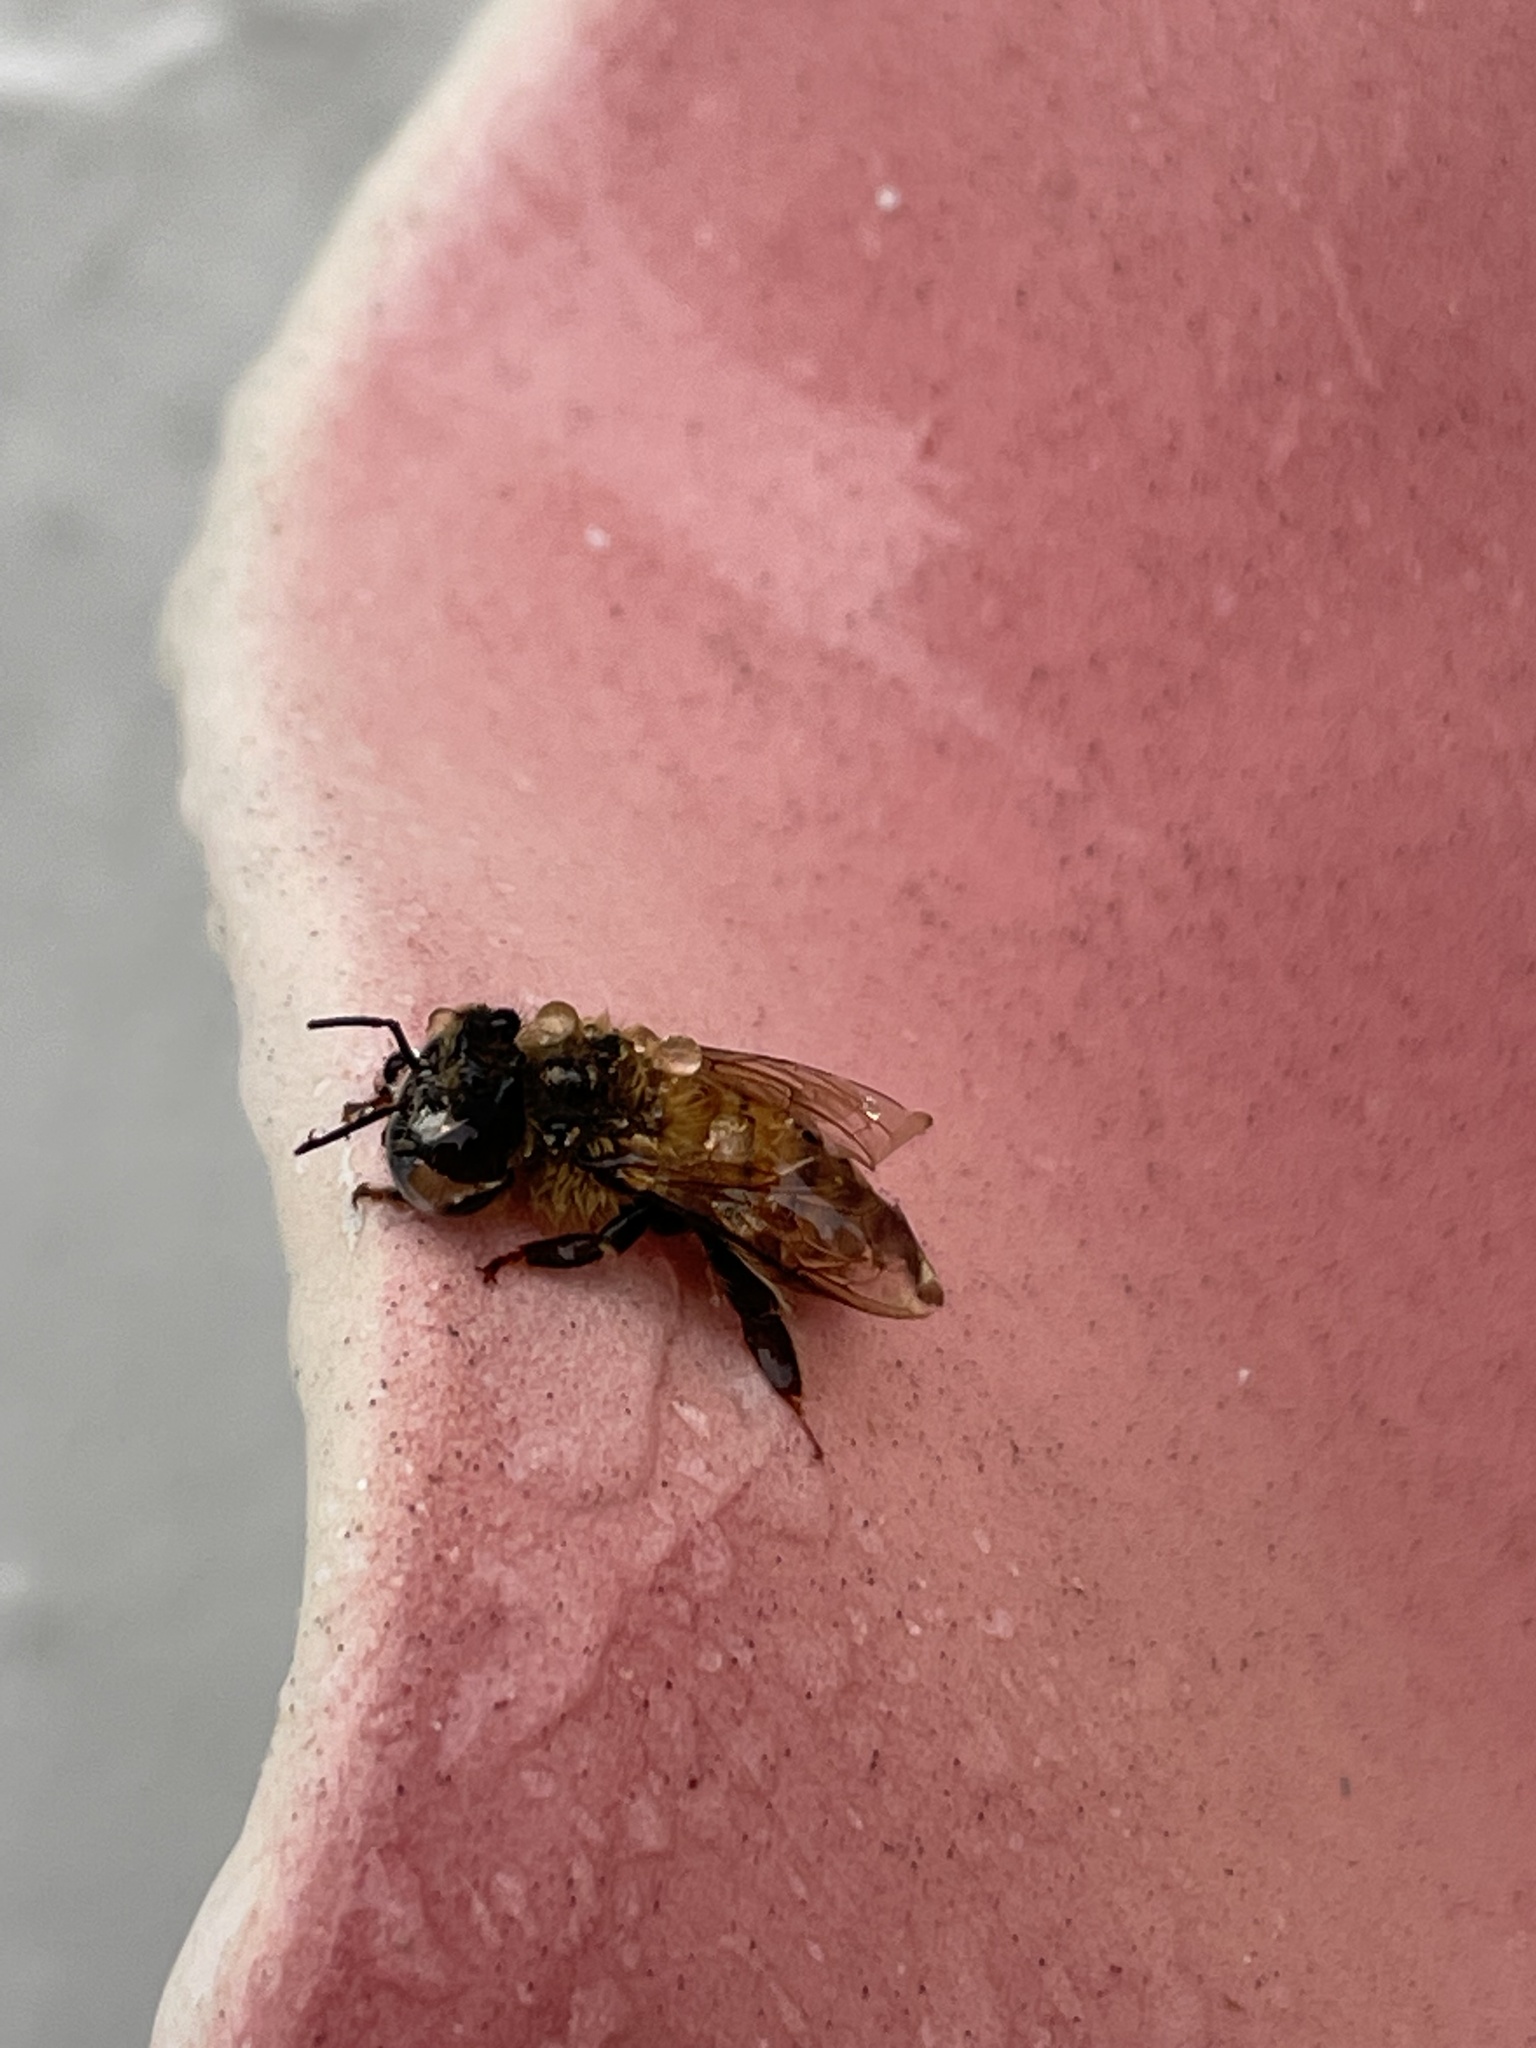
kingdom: Animalia
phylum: Arthropoda
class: Insecta
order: Hymenoptera
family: Apidae
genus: Apis
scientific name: Apis mellifera
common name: Honey bee
